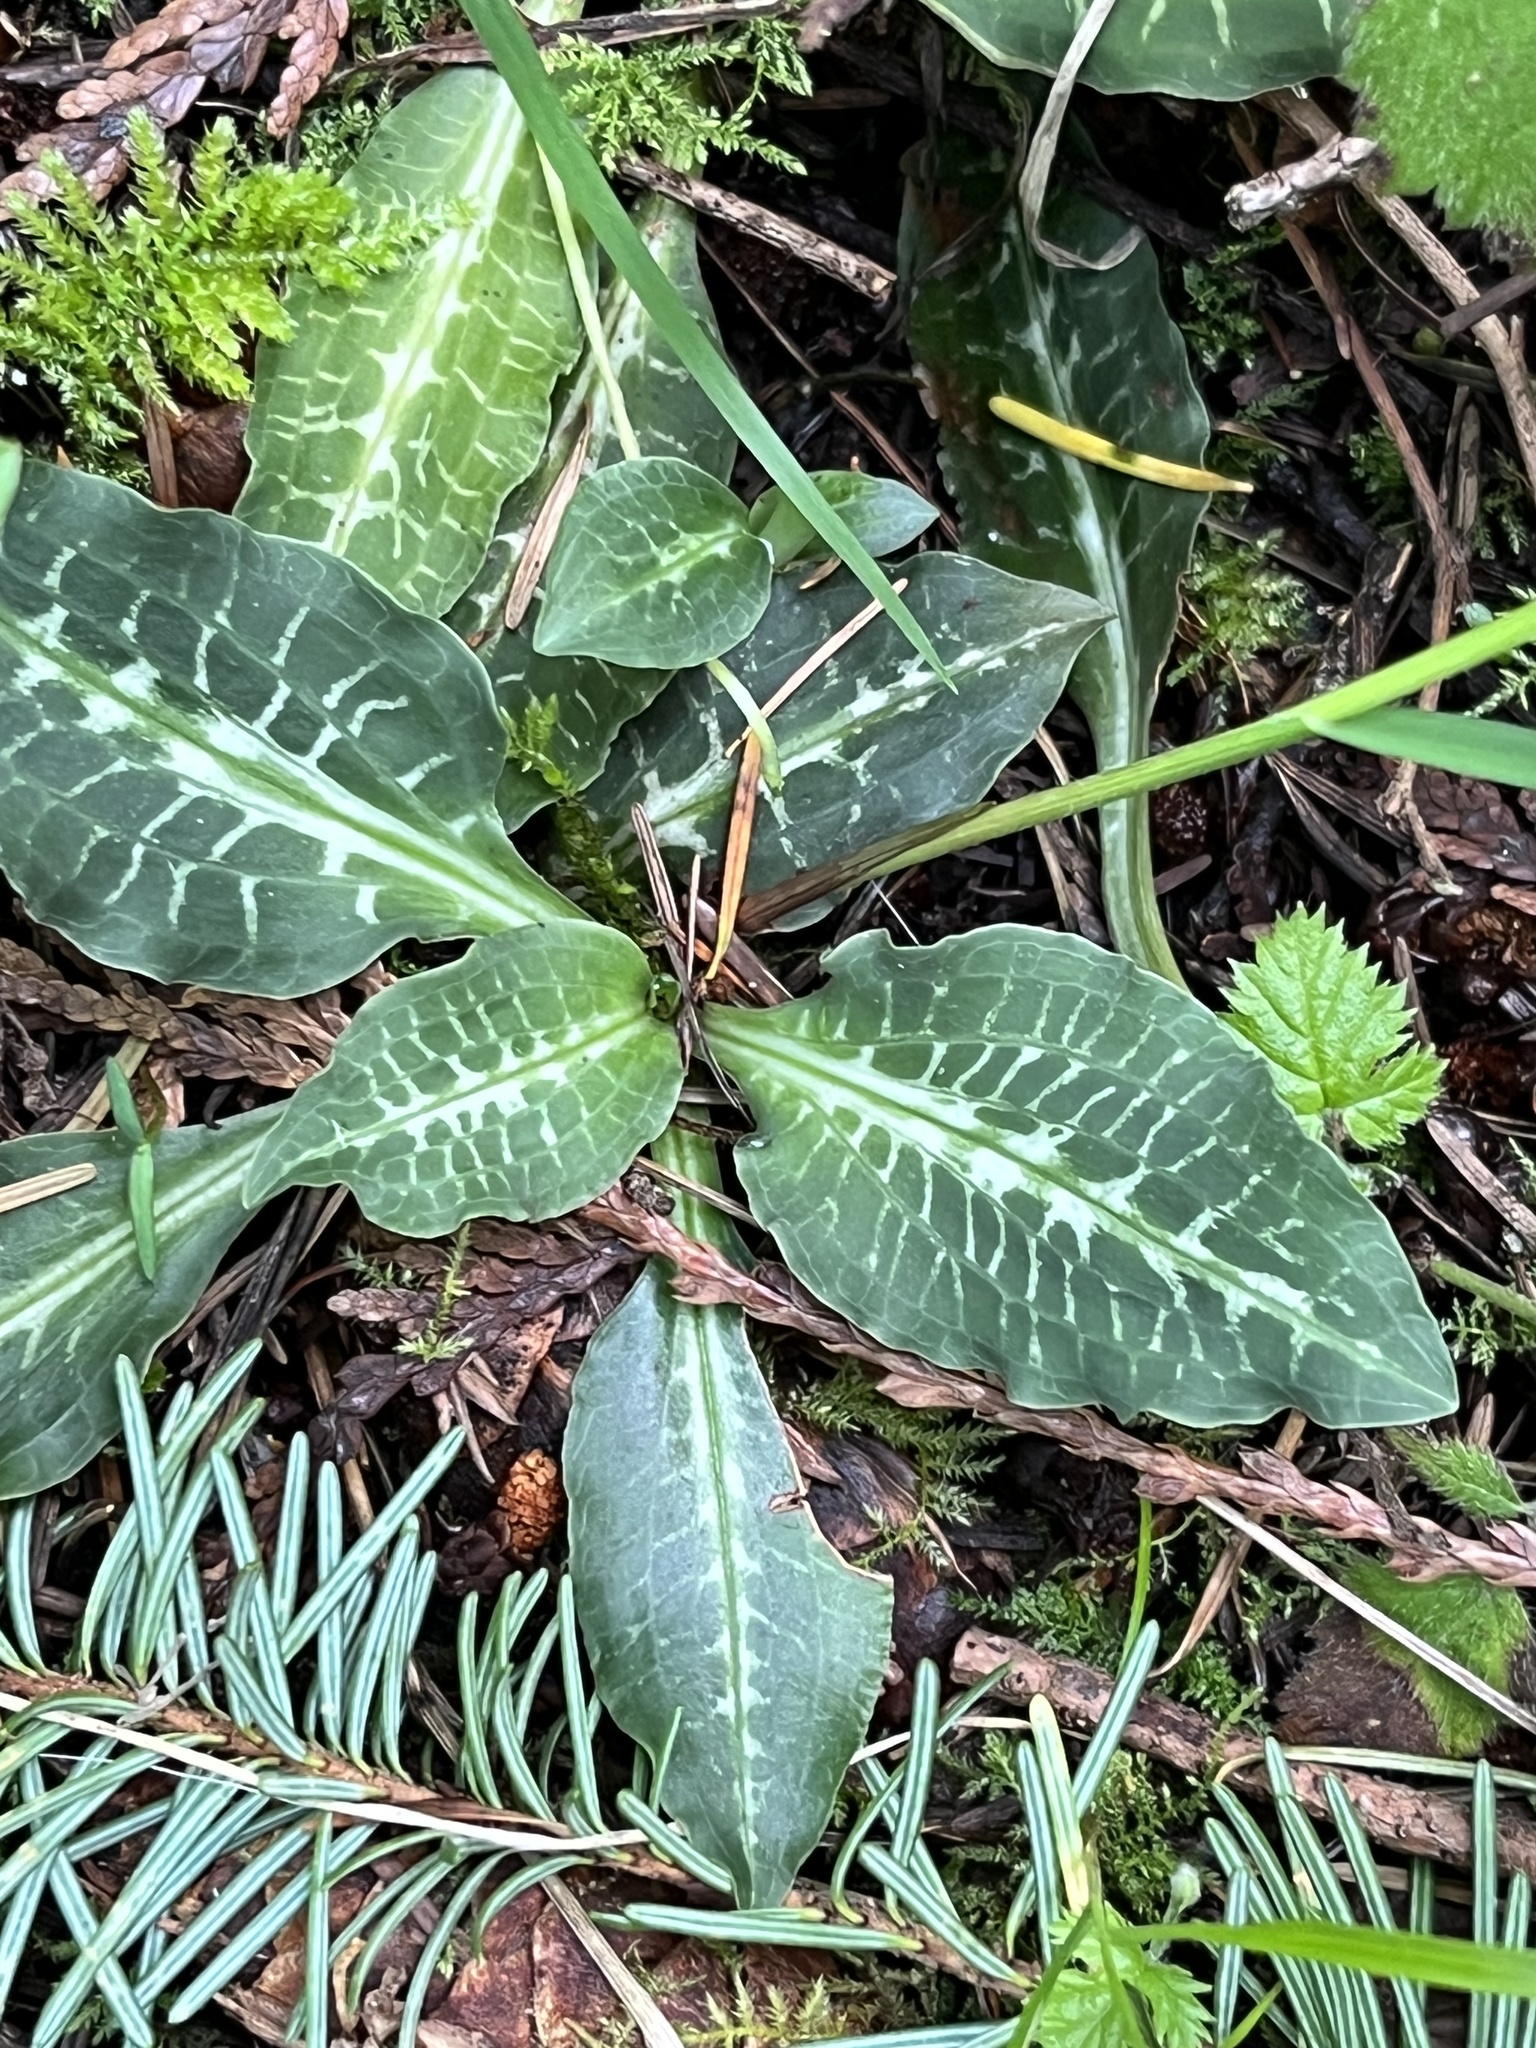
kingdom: Plantae
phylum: Tracheophyta
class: Liliopsida
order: Asparagales
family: Orchidaceae
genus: Goodyera
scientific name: Goodyera oblongifolia
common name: Giant rattlesnake-plantain
